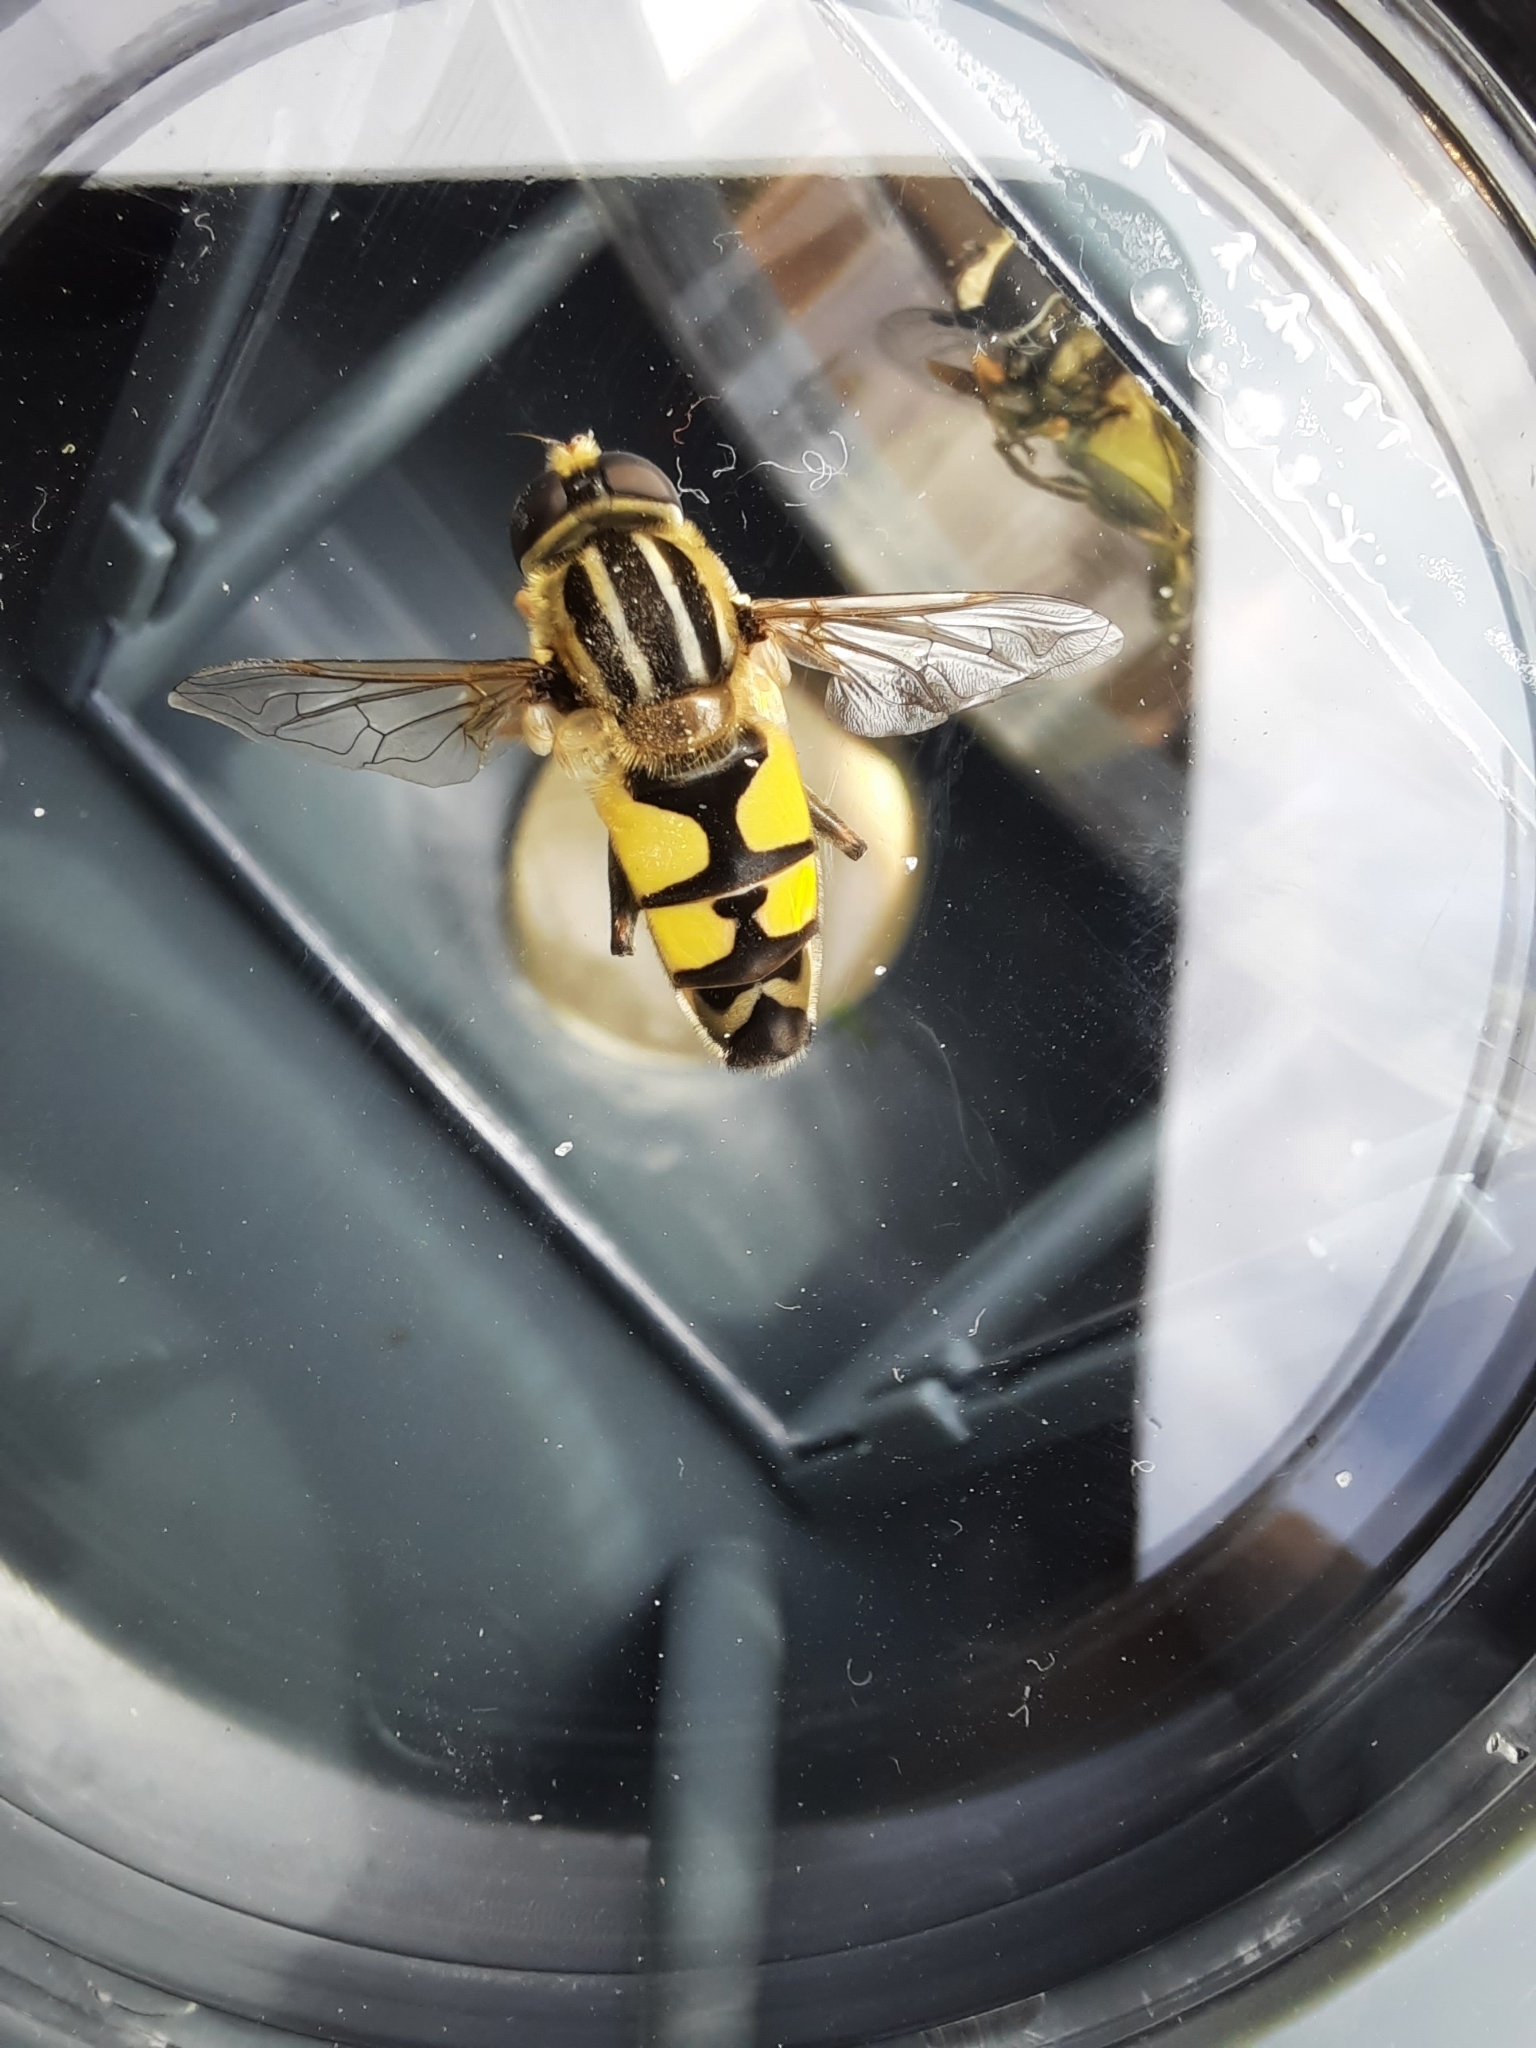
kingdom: Animalia
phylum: Arthropoda
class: Insecta
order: Diptera
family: Syrphidae
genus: Helophilus
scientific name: Helophilus trivittatus
